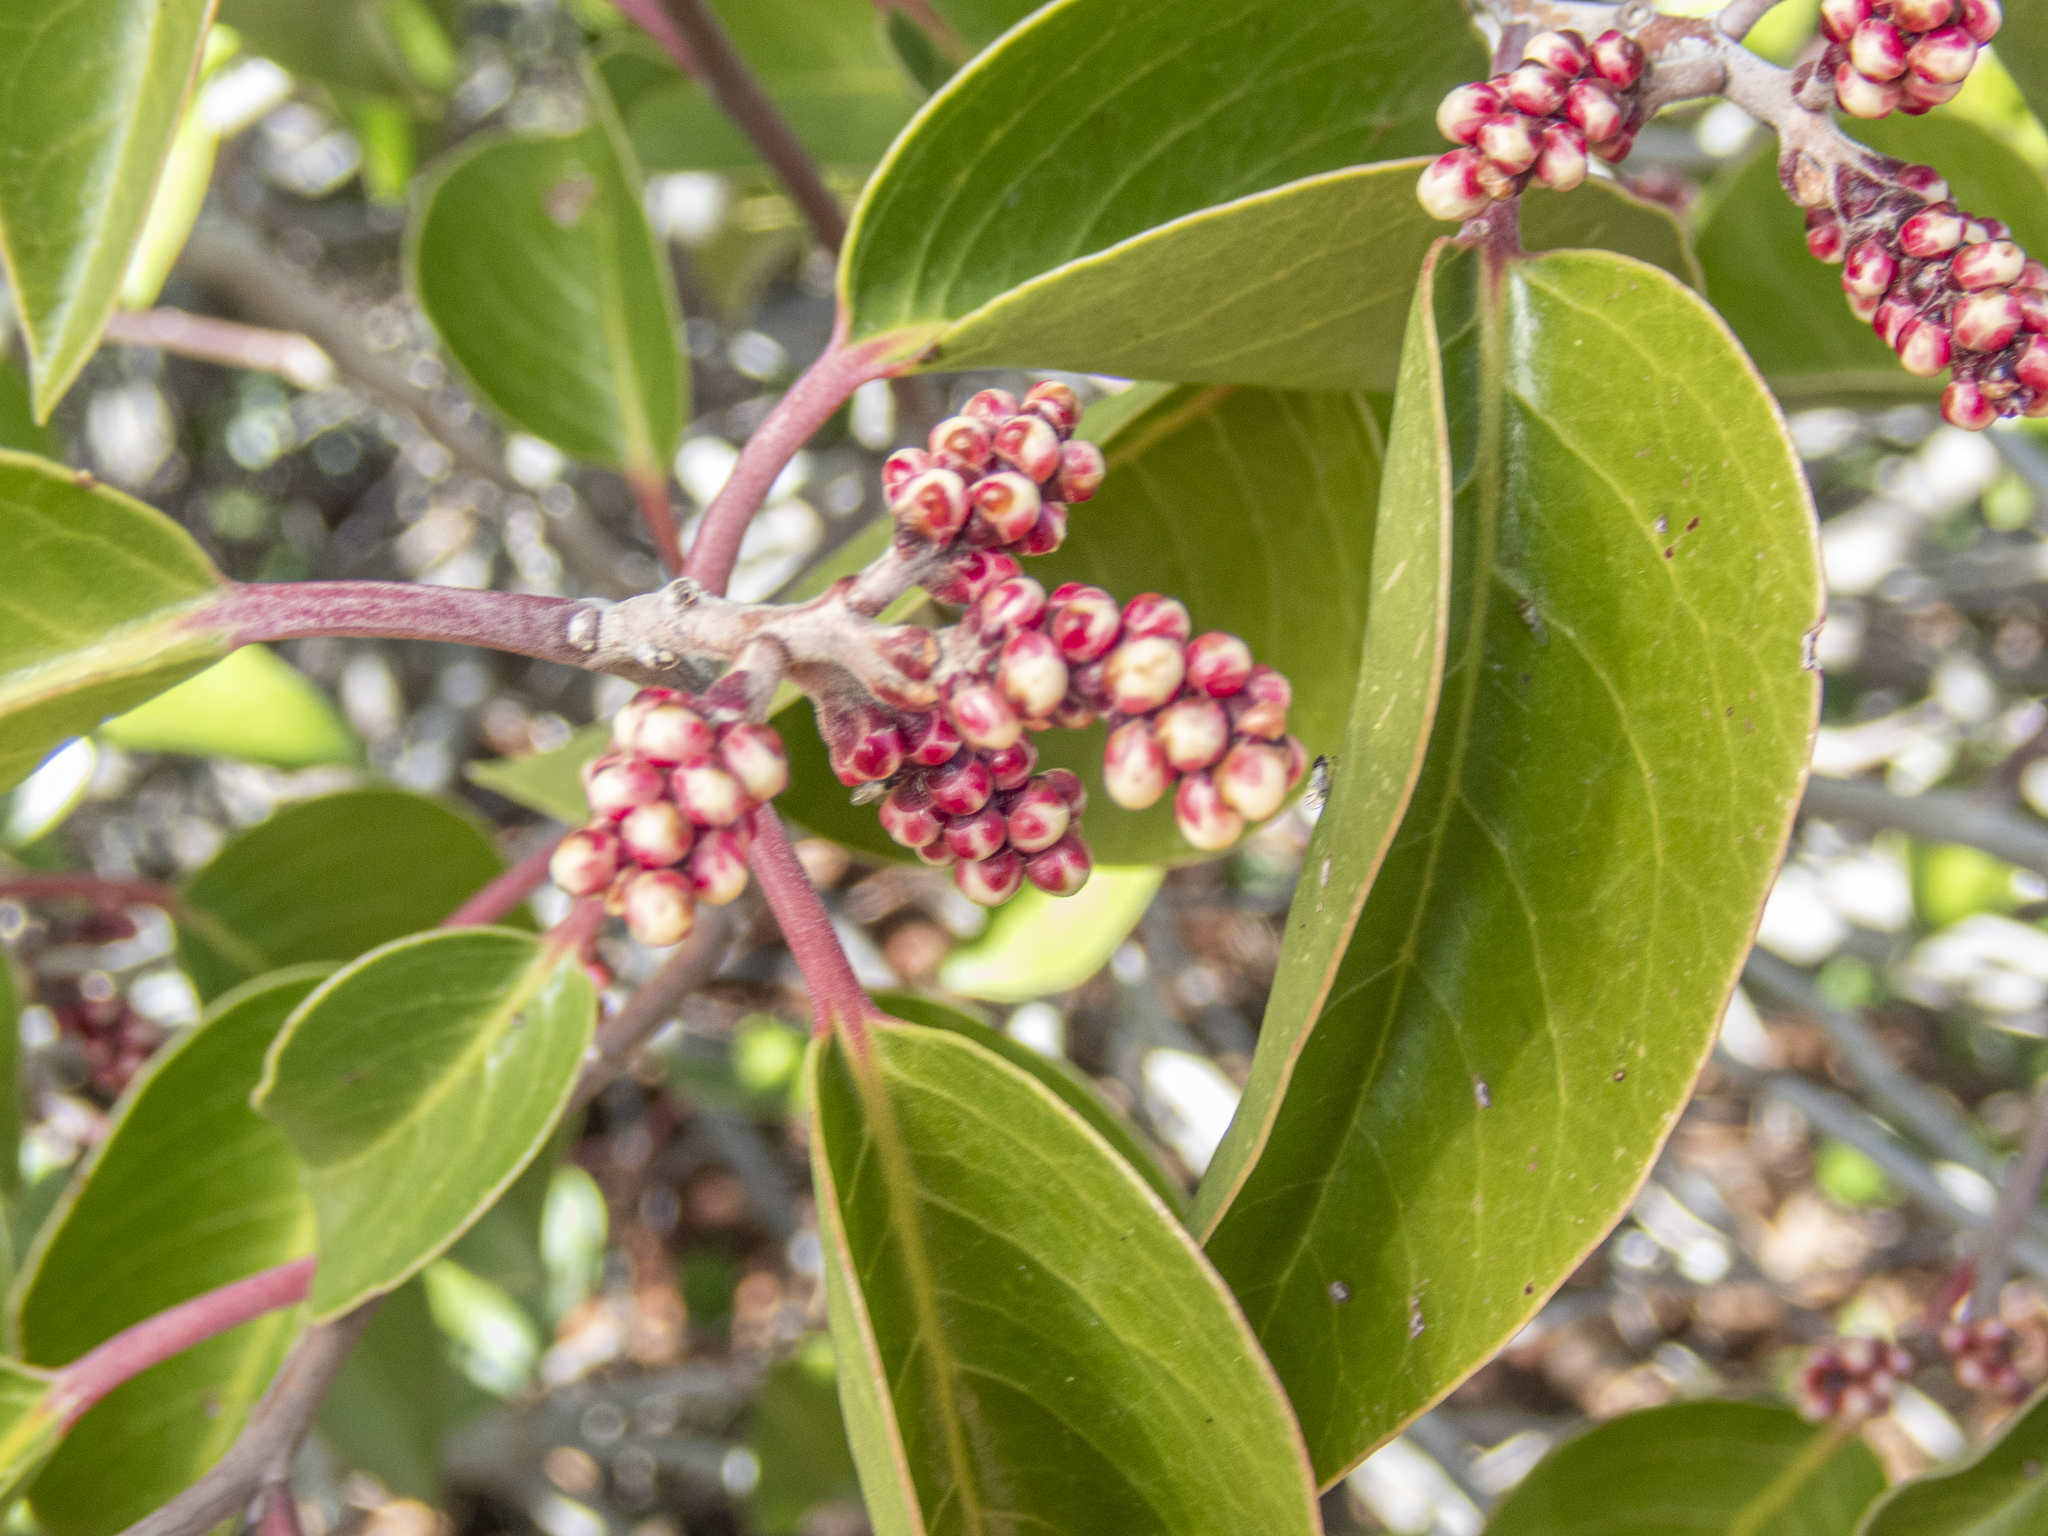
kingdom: Plantae
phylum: Tracheophyta
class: Magnoliopsida
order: Sapindales
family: Anacardiaceae
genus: Rhus
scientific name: Rhus ovata
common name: Sugar sumac
